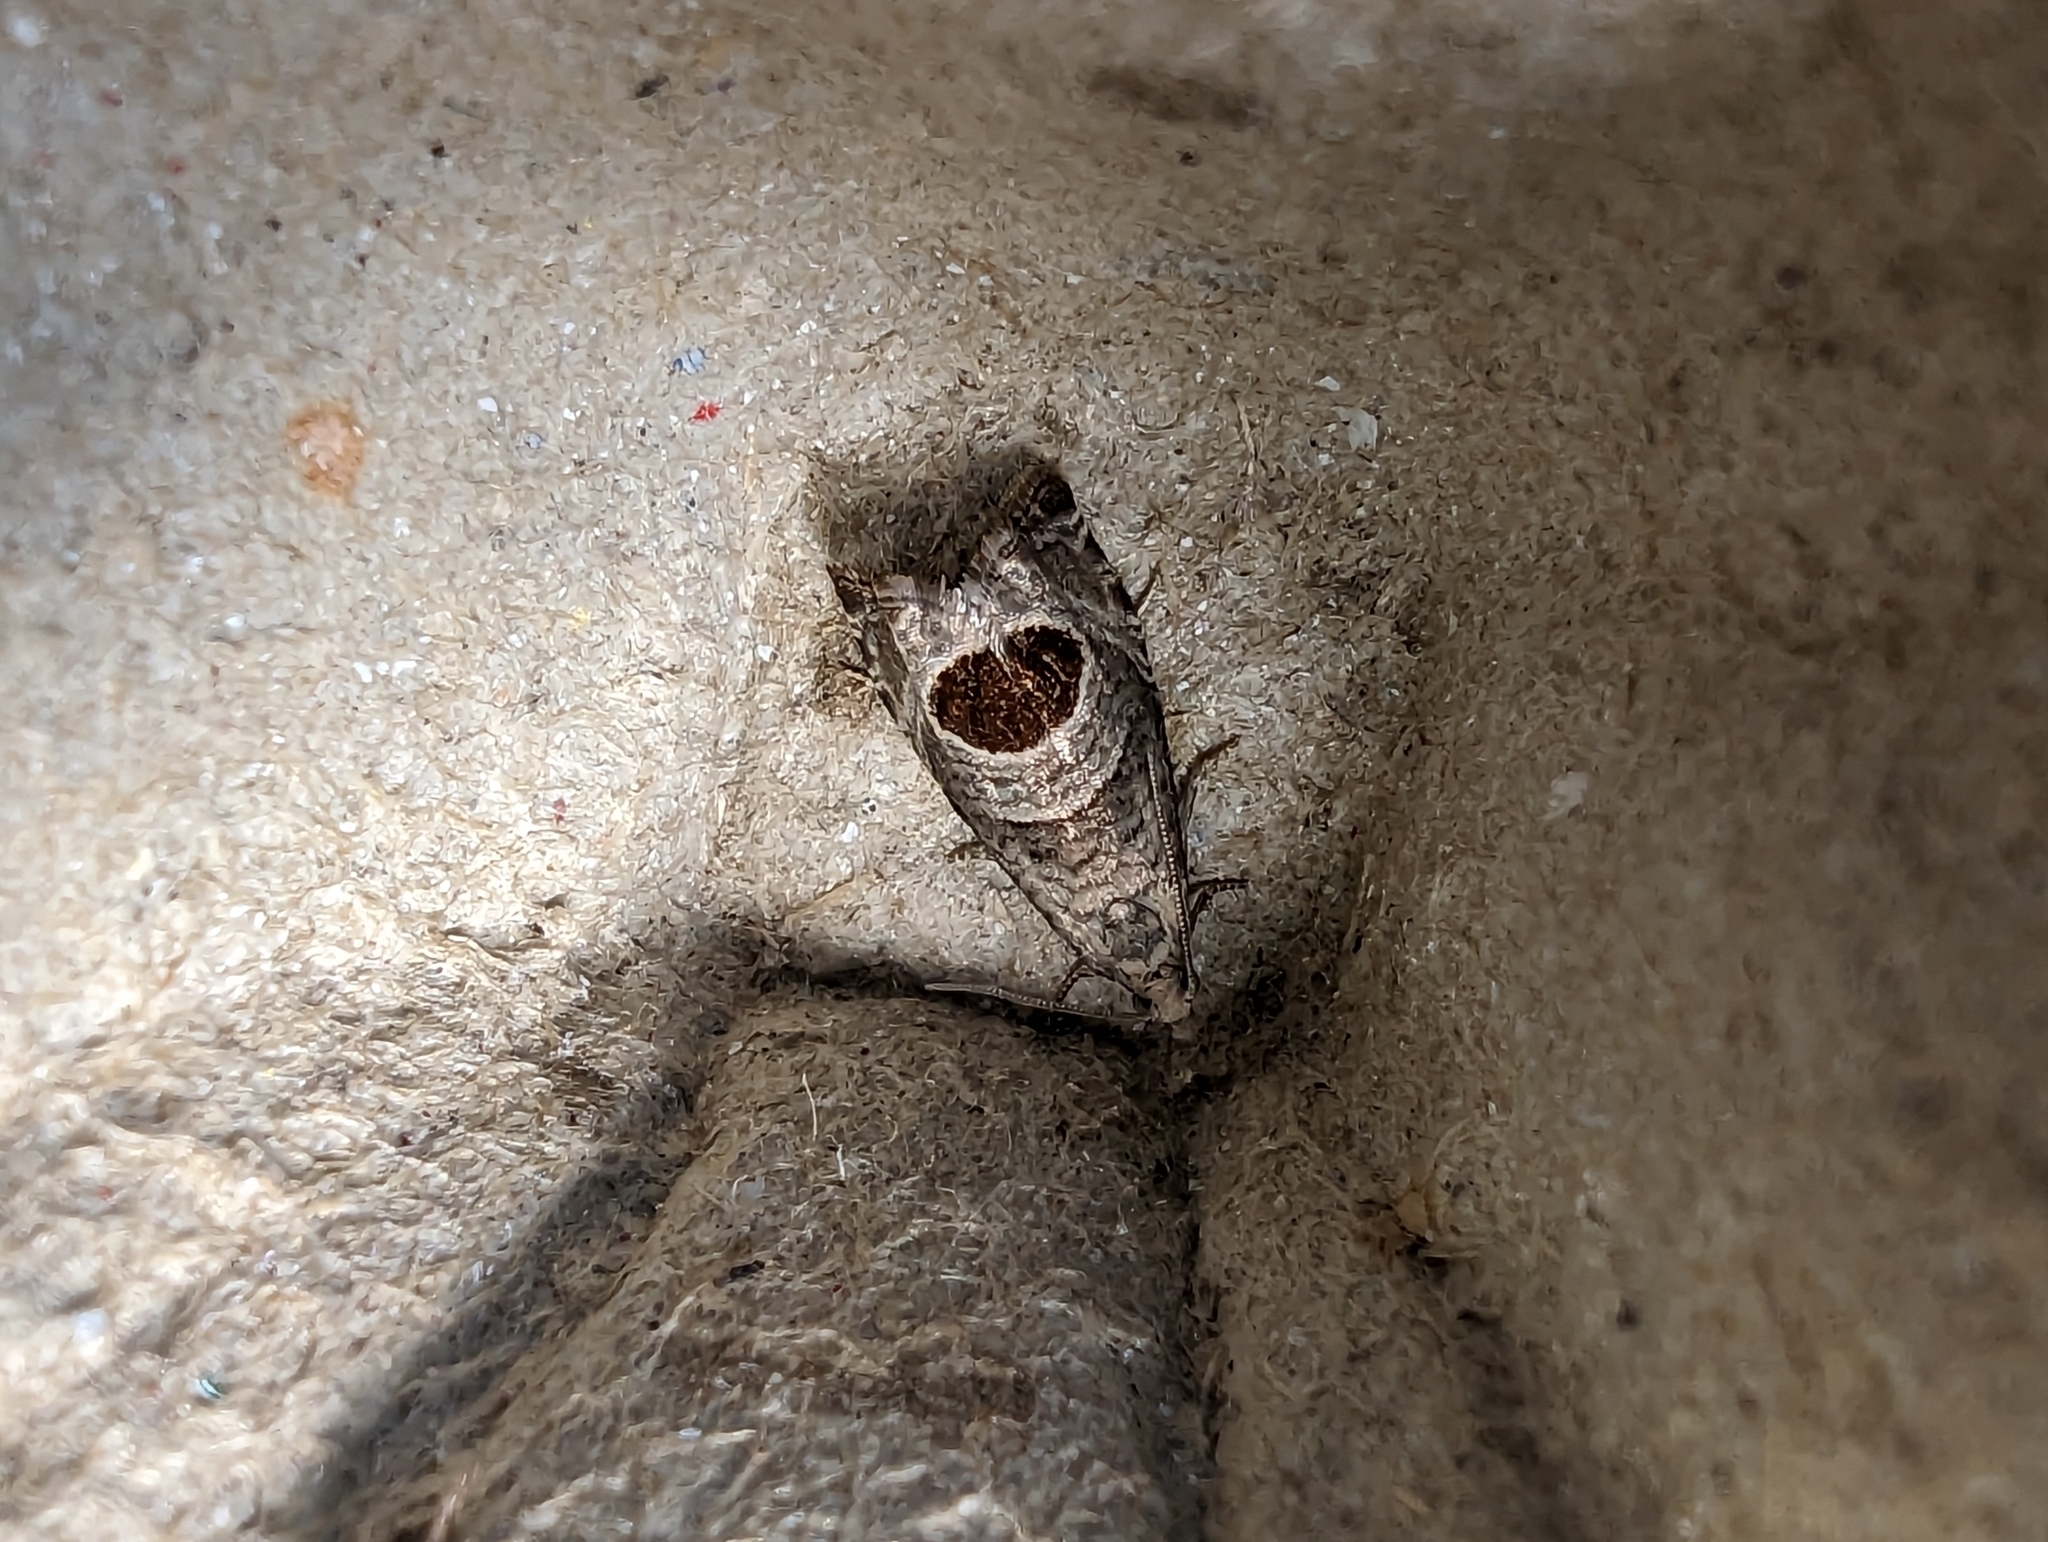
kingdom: Animalia
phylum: Arthropoda
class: Insecta
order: Lepidoptera
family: Tortricidae
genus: Notocelia
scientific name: Notocelia uddmanniana
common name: Bramble shoot moth
